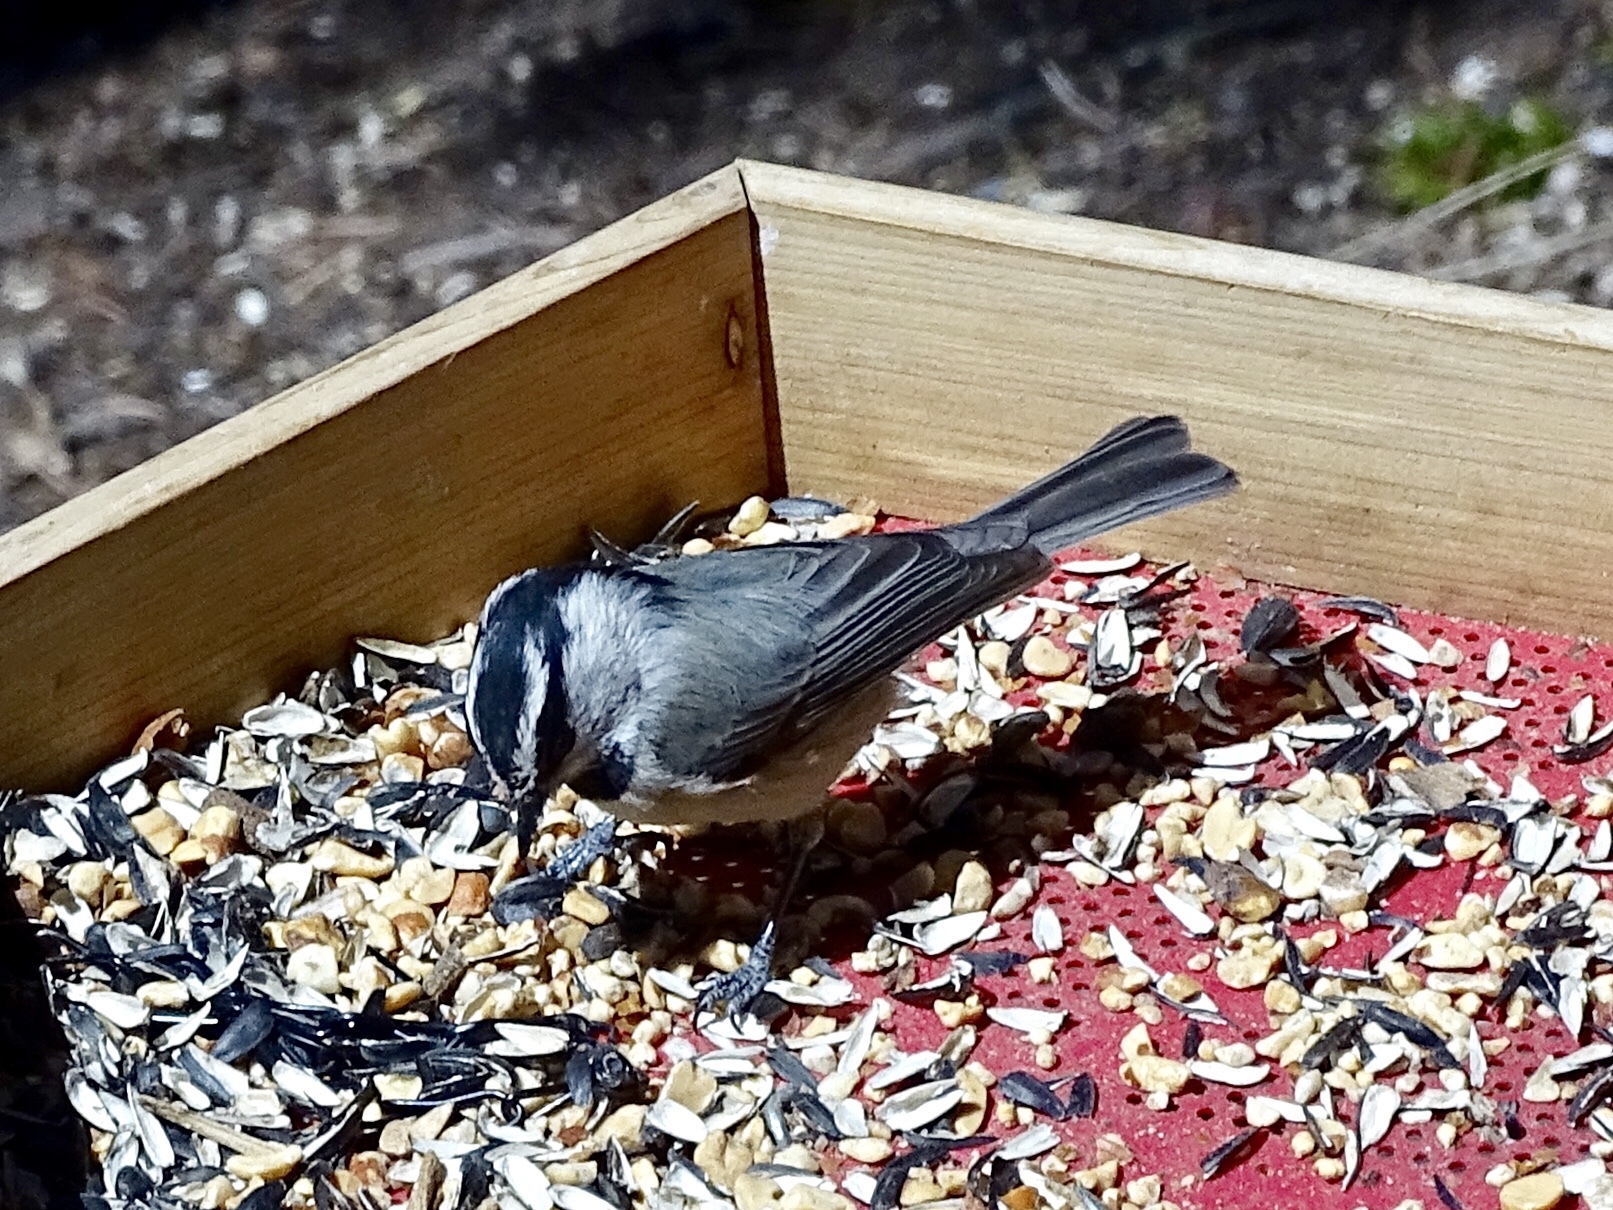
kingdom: Animalia
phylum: Chordata
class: Aves
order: Passeriformes
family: Paridae
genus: Poecile
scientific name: Poecile gambeli
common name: Mountain chickadee
